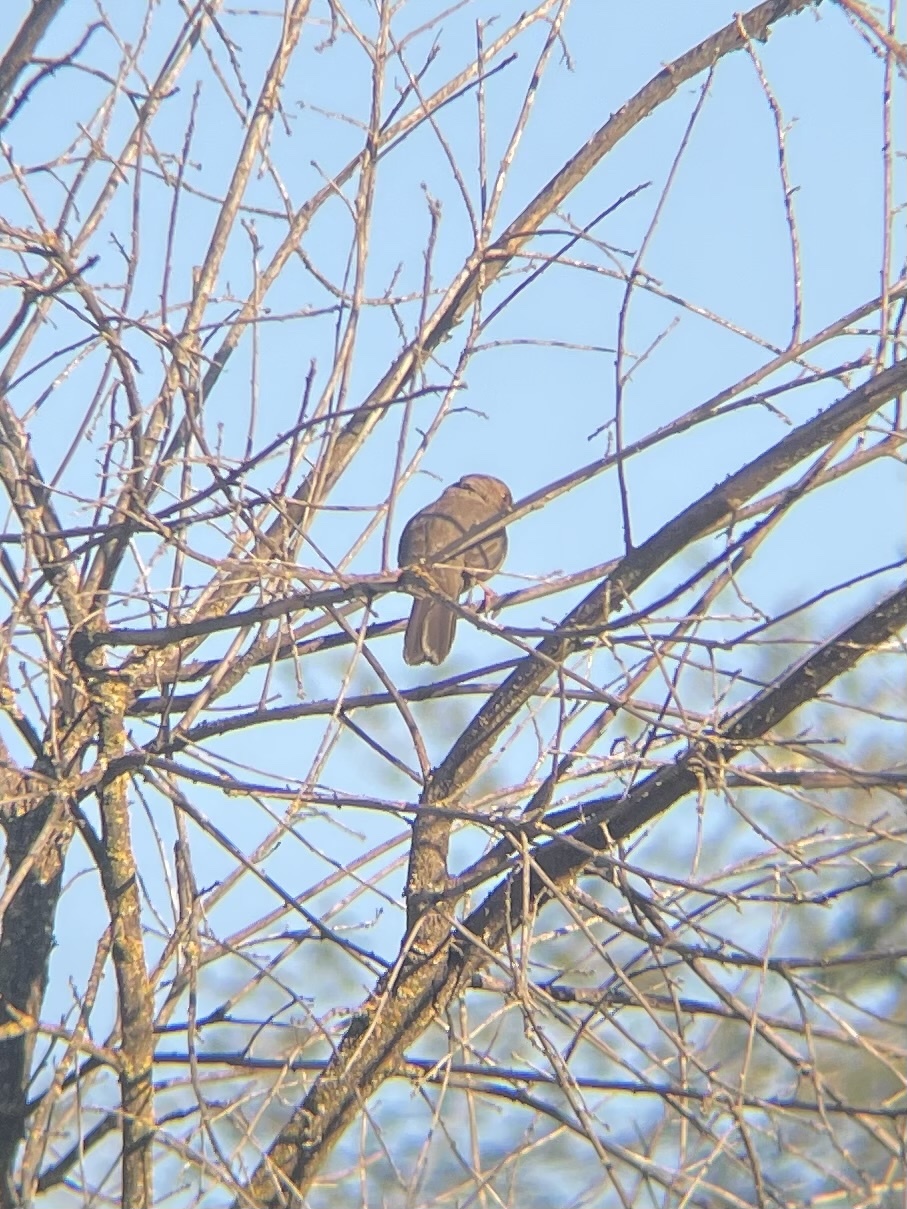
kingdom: Animalia
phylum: Chordata
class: Aves
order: Passeriformes
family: Passerellidae
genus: Melozone
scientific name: Melozone crissalis
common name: California towhee
